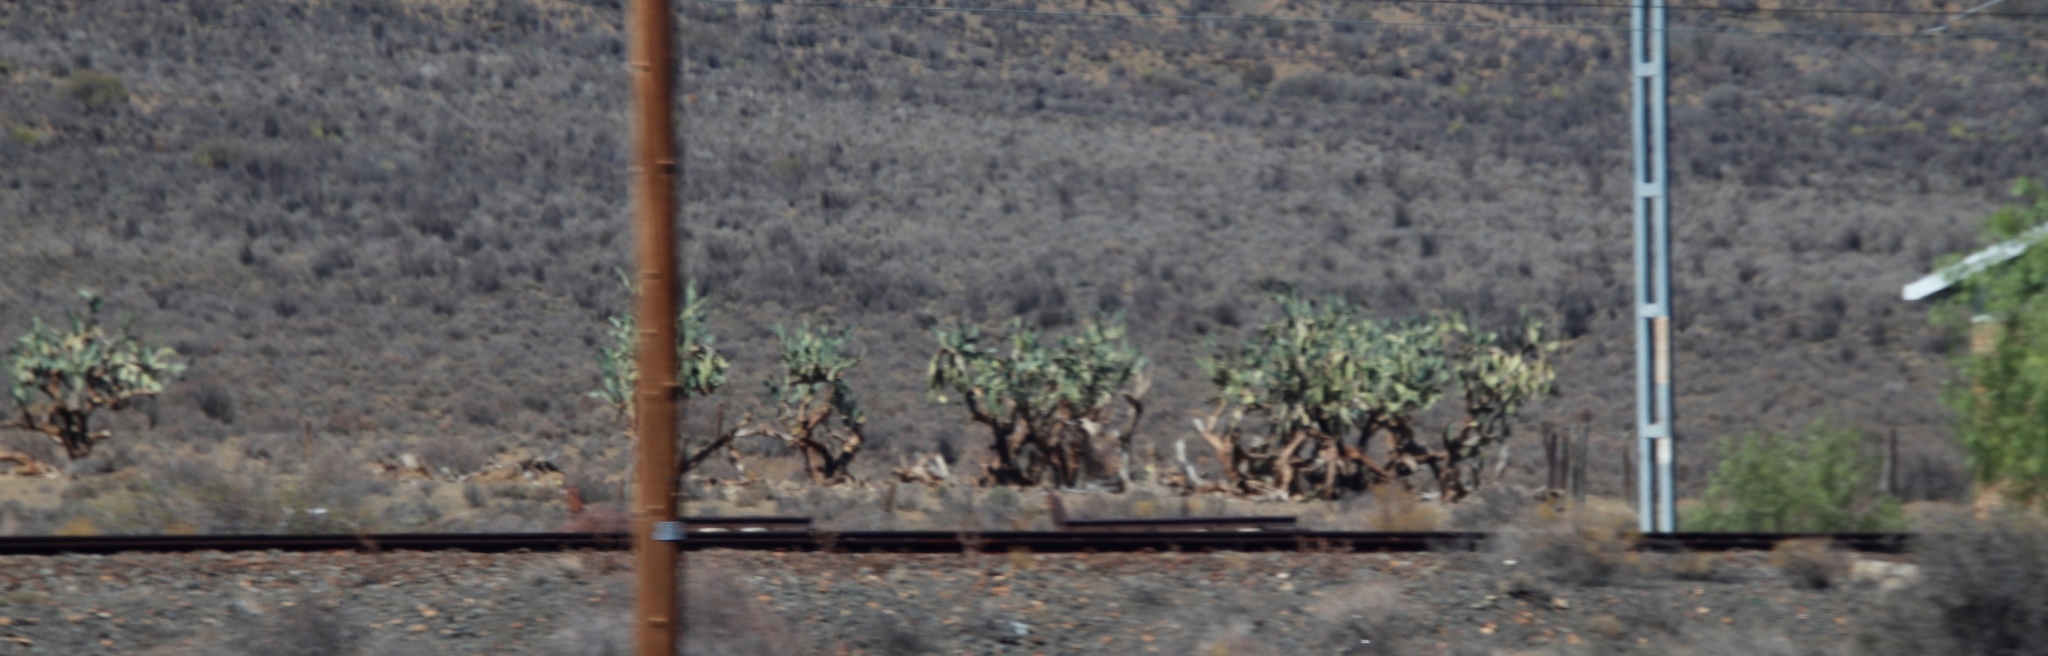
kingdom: Plantae
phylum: Tracheophyta
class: Magnoliopsida
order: Caryophyllales
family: Cactaceae
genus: Opuntia
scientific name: Opuntia ficus-indica
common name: Barbary fig
